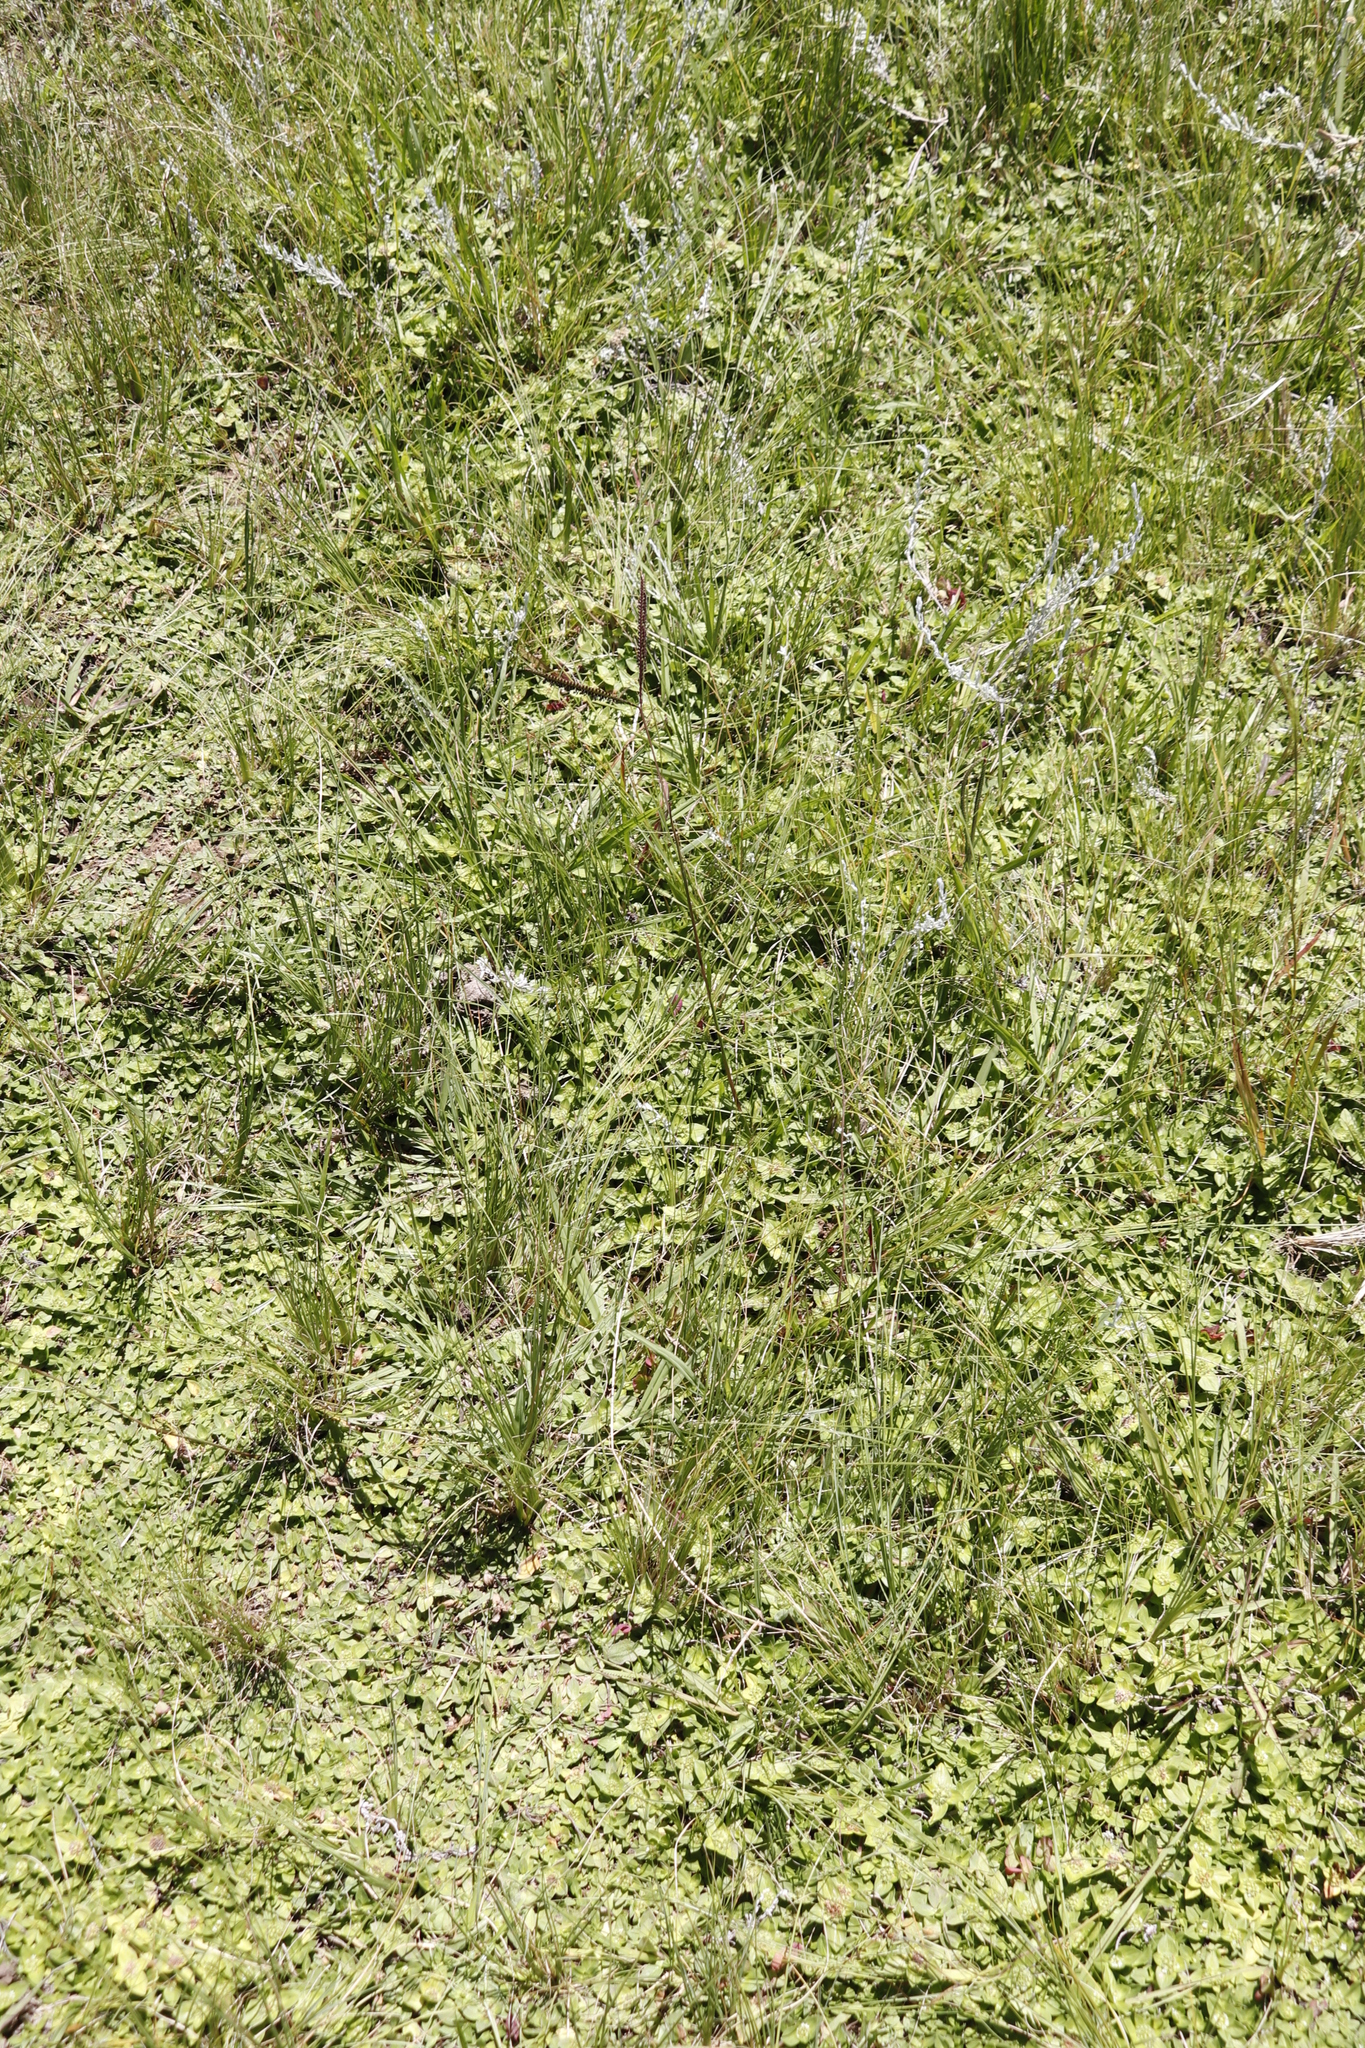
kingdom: Plantae
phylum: Tracheophyta
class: Liliopsida
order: Poales
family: Poaceae
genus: Paspalum
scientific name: Paspalum notatum
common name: Bahiagrass
